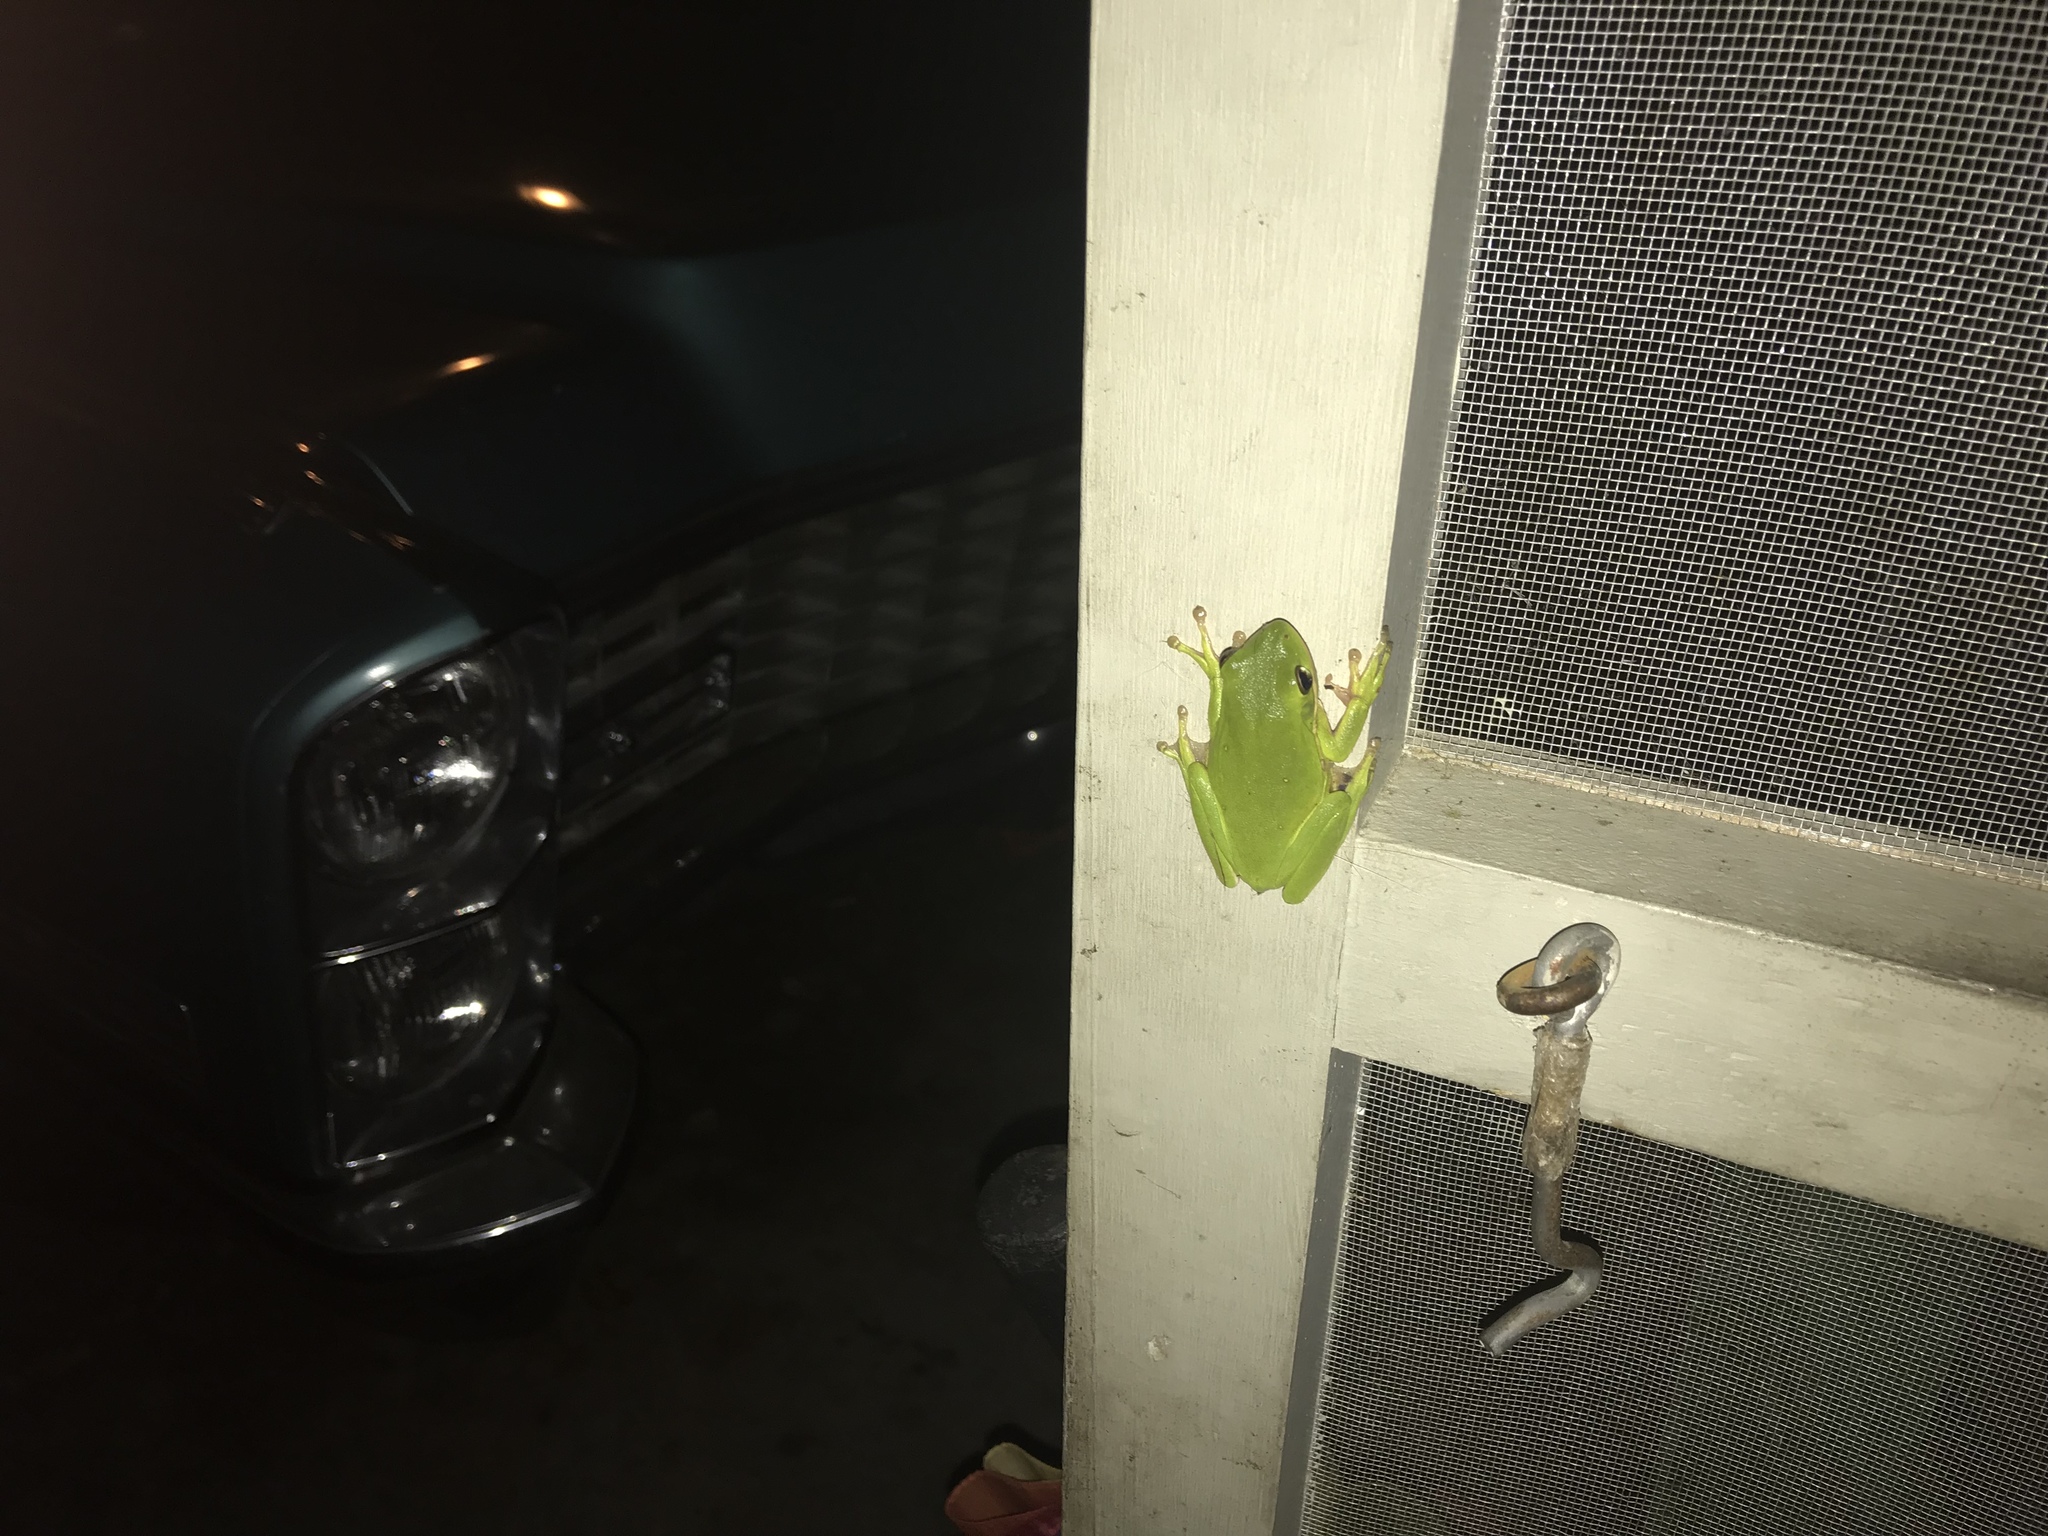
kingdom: Animalia
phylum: Chordata
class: Amphibia
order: Anura
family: Hylidae
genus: Dryophytes
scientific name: Dryophytes cinereus
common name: Green treefrog
